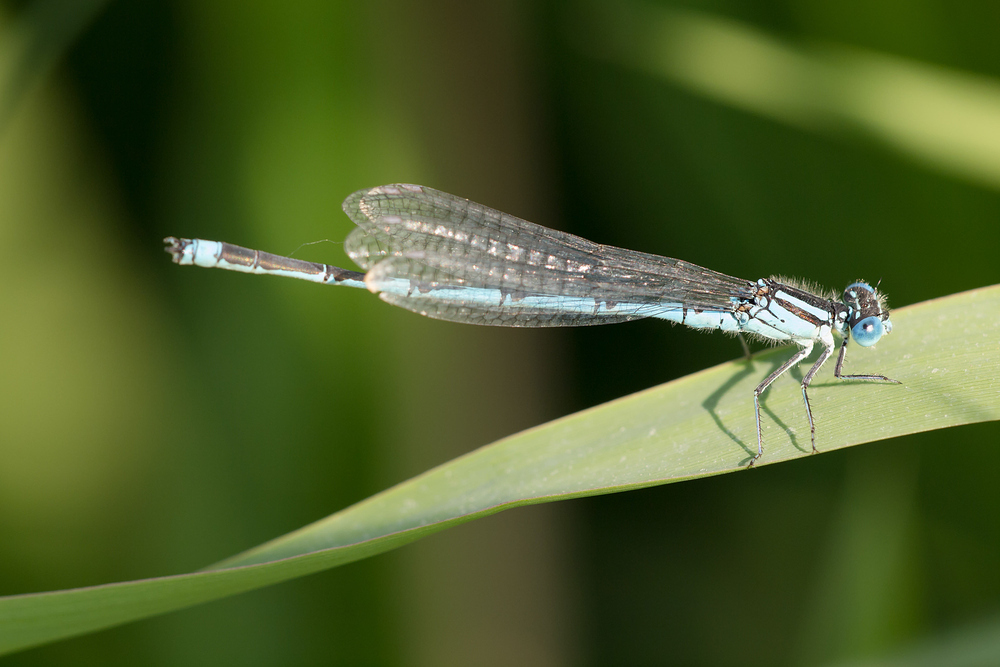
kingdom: Animalia
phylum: Arthropoda
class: Insecta
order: Odonata
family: Coenagrionidae
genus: Erythromma
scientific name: Erythromma lindenii
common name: Blue-eye
